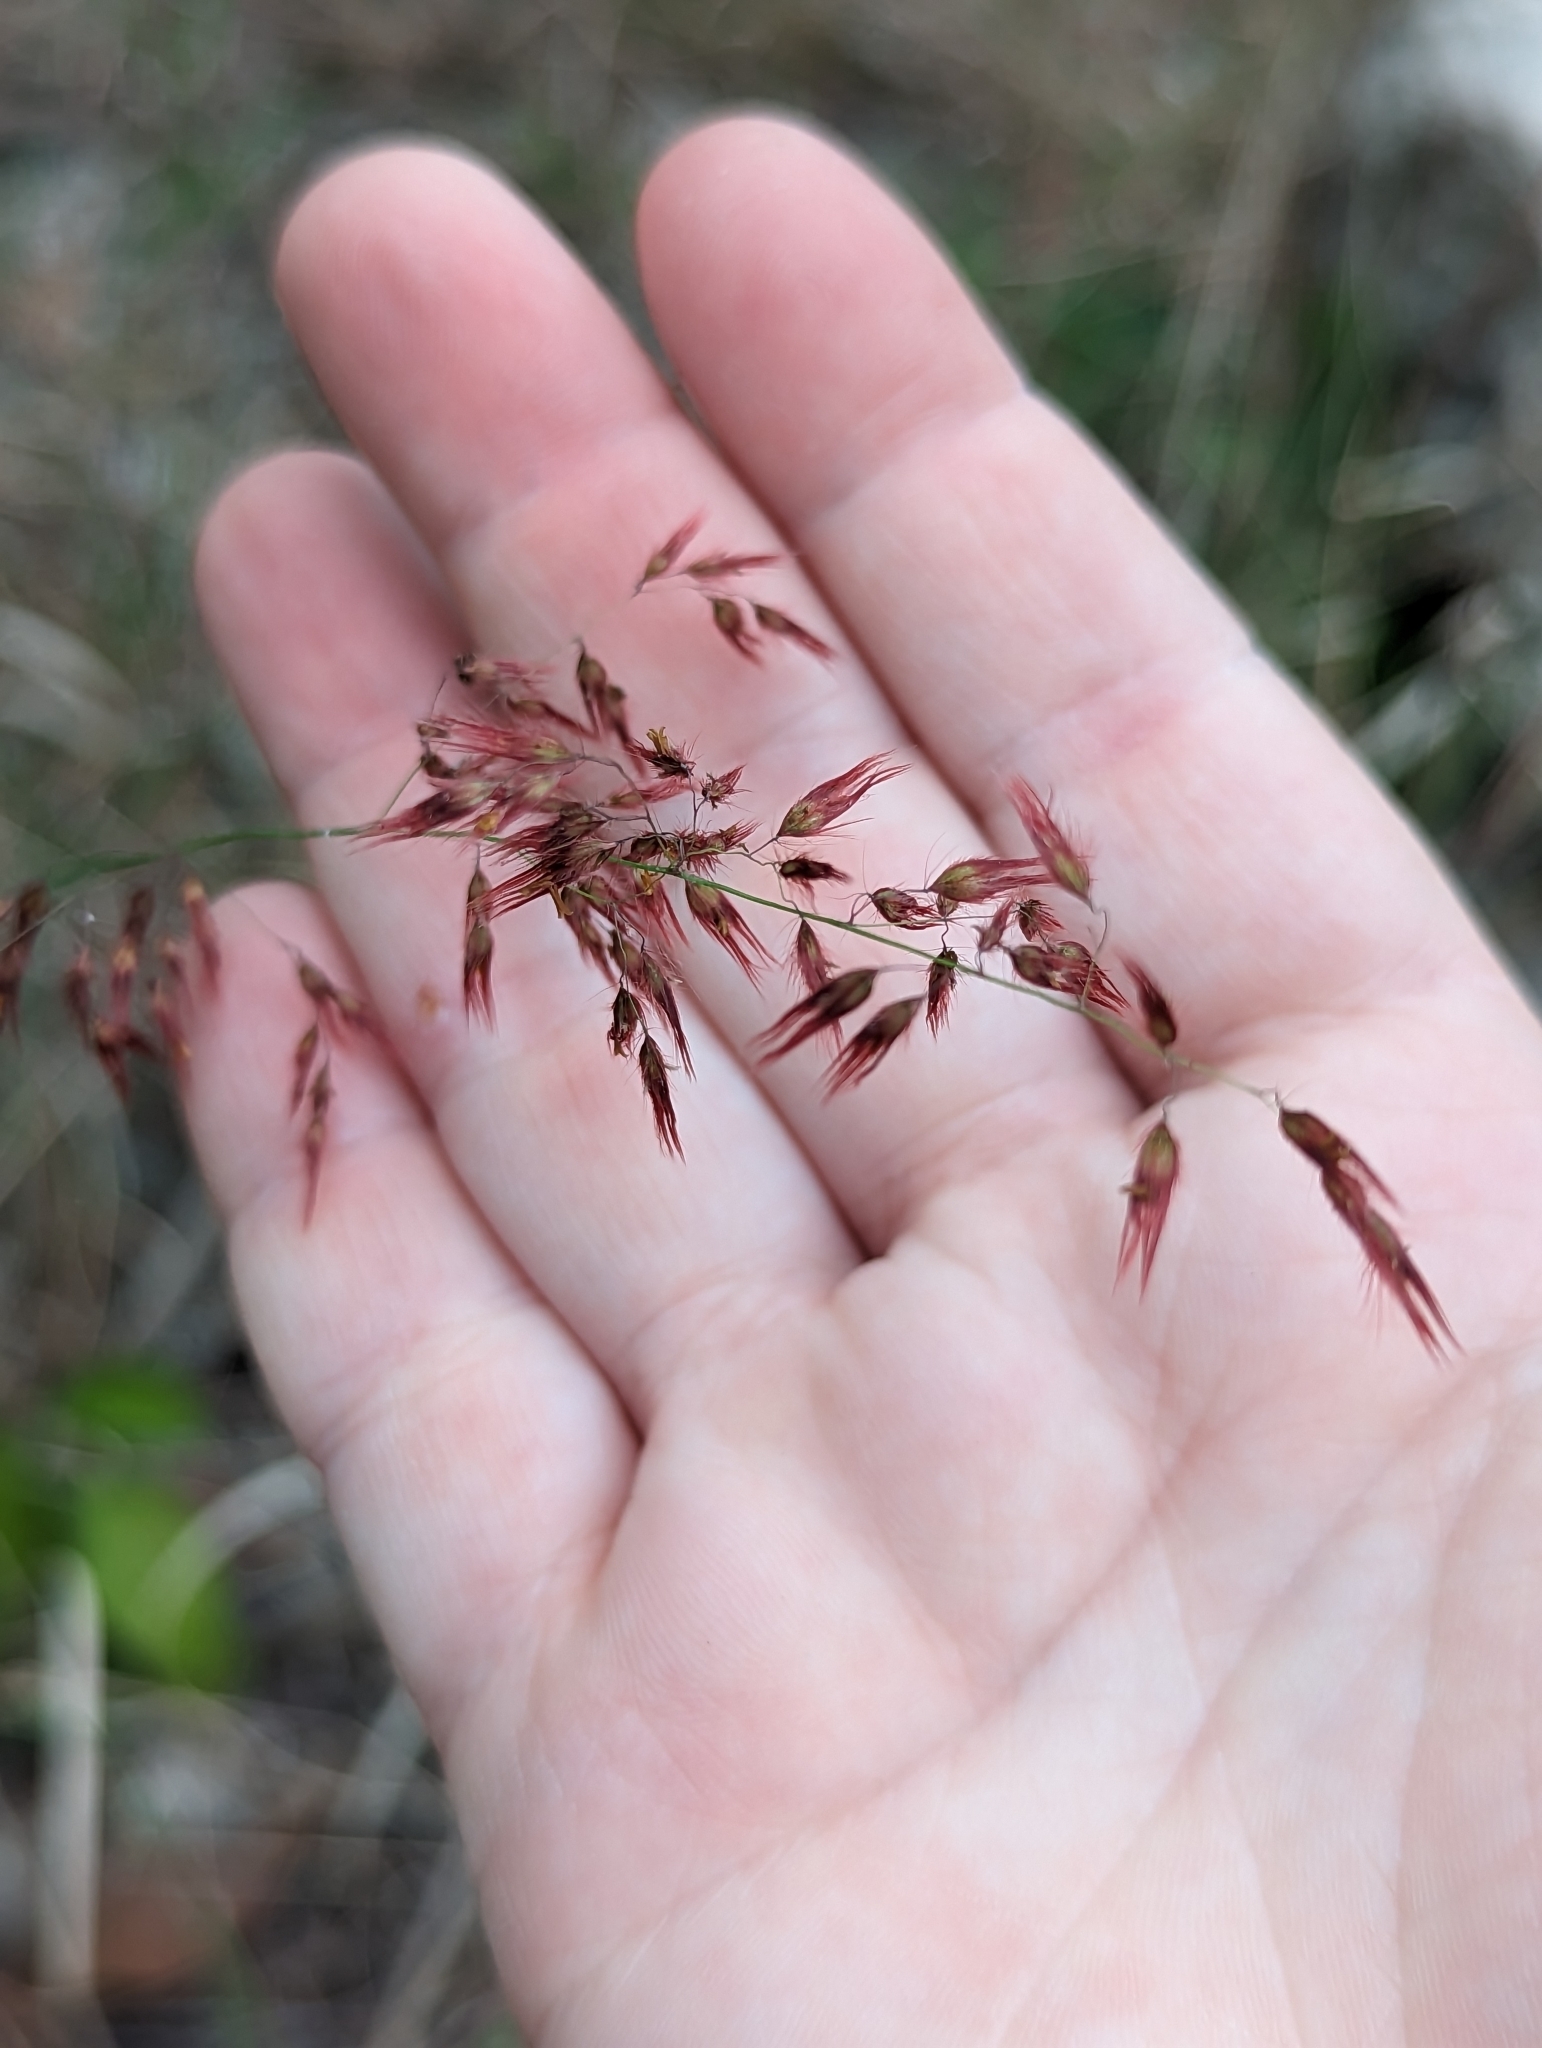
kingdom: Plantae
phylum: Tracheophyta
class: Liliopsida
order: Poales
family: Poaceae
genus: Melinis
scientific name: Melinis repens
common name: Rose natal grass
